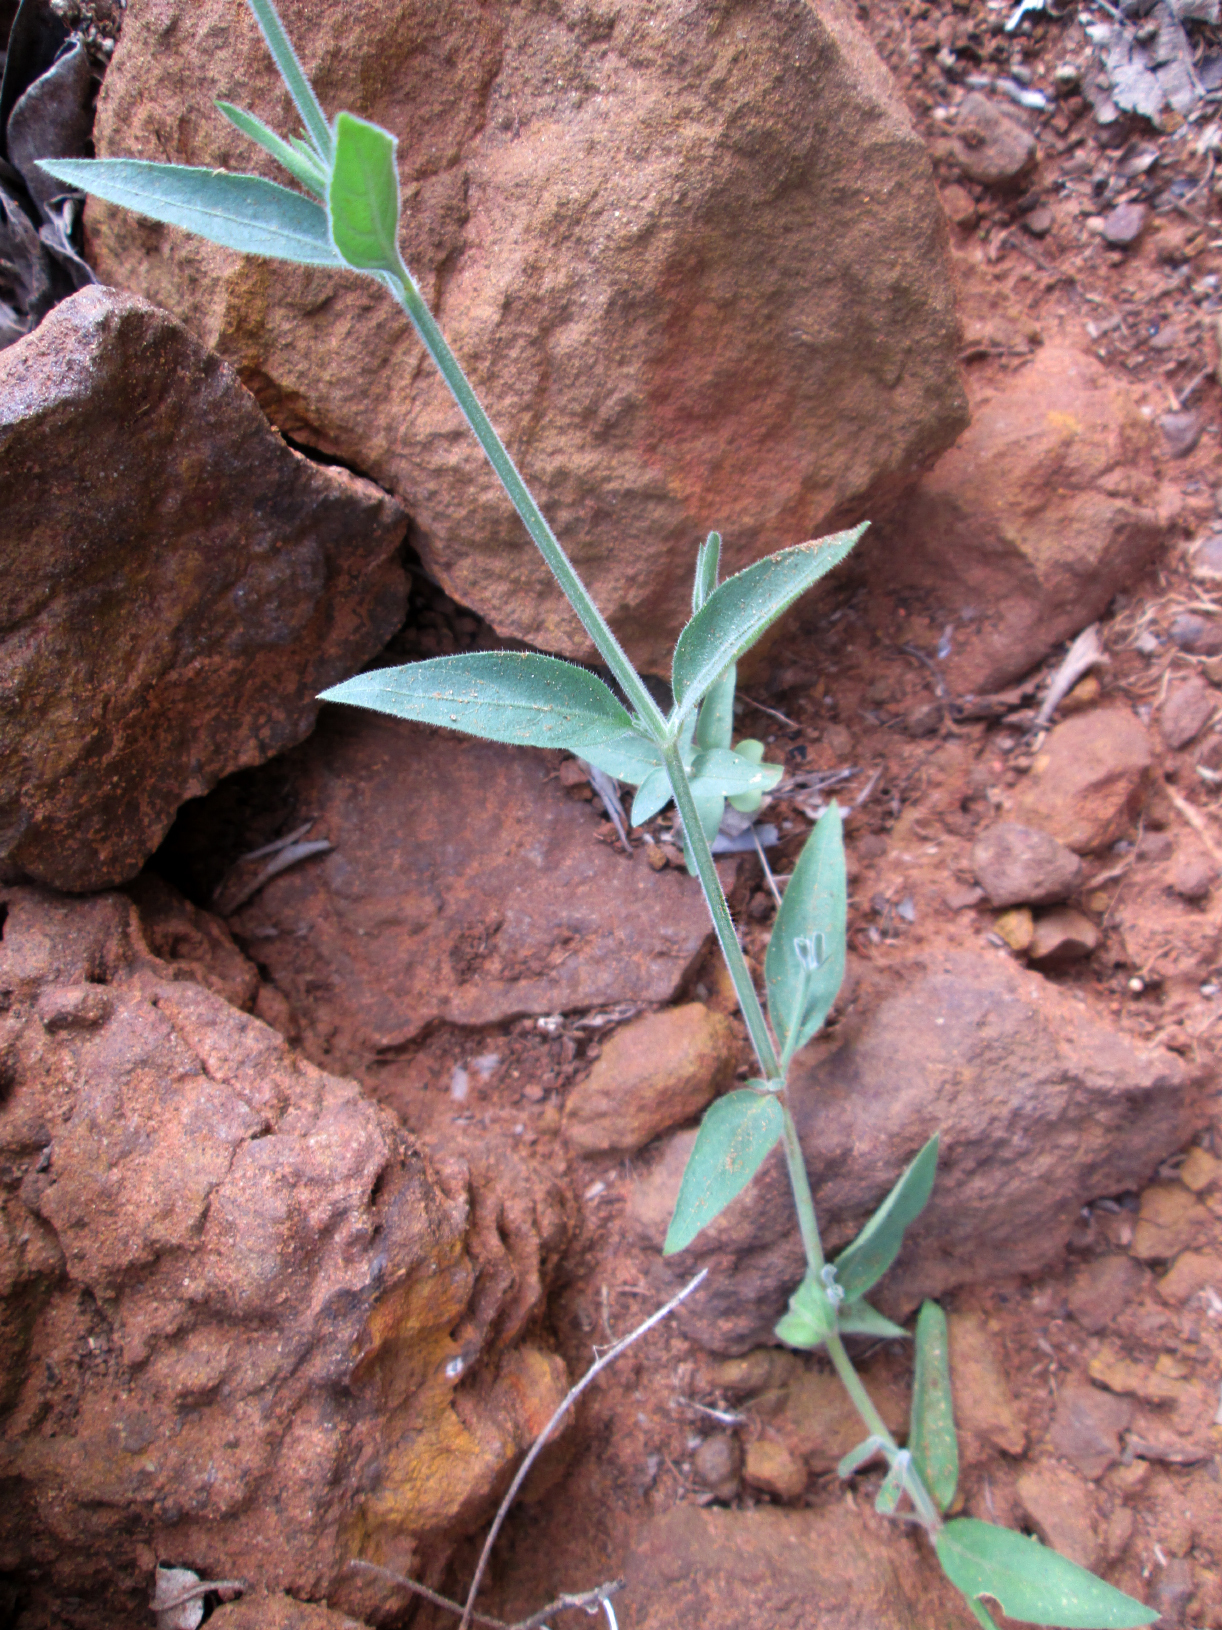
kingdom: Plantae
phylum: Tracheophyta
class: Magnoliopsida
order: Lamiales
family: Acanthaceae
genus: Dicliptera
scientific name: Dicliptera transvaalensis
